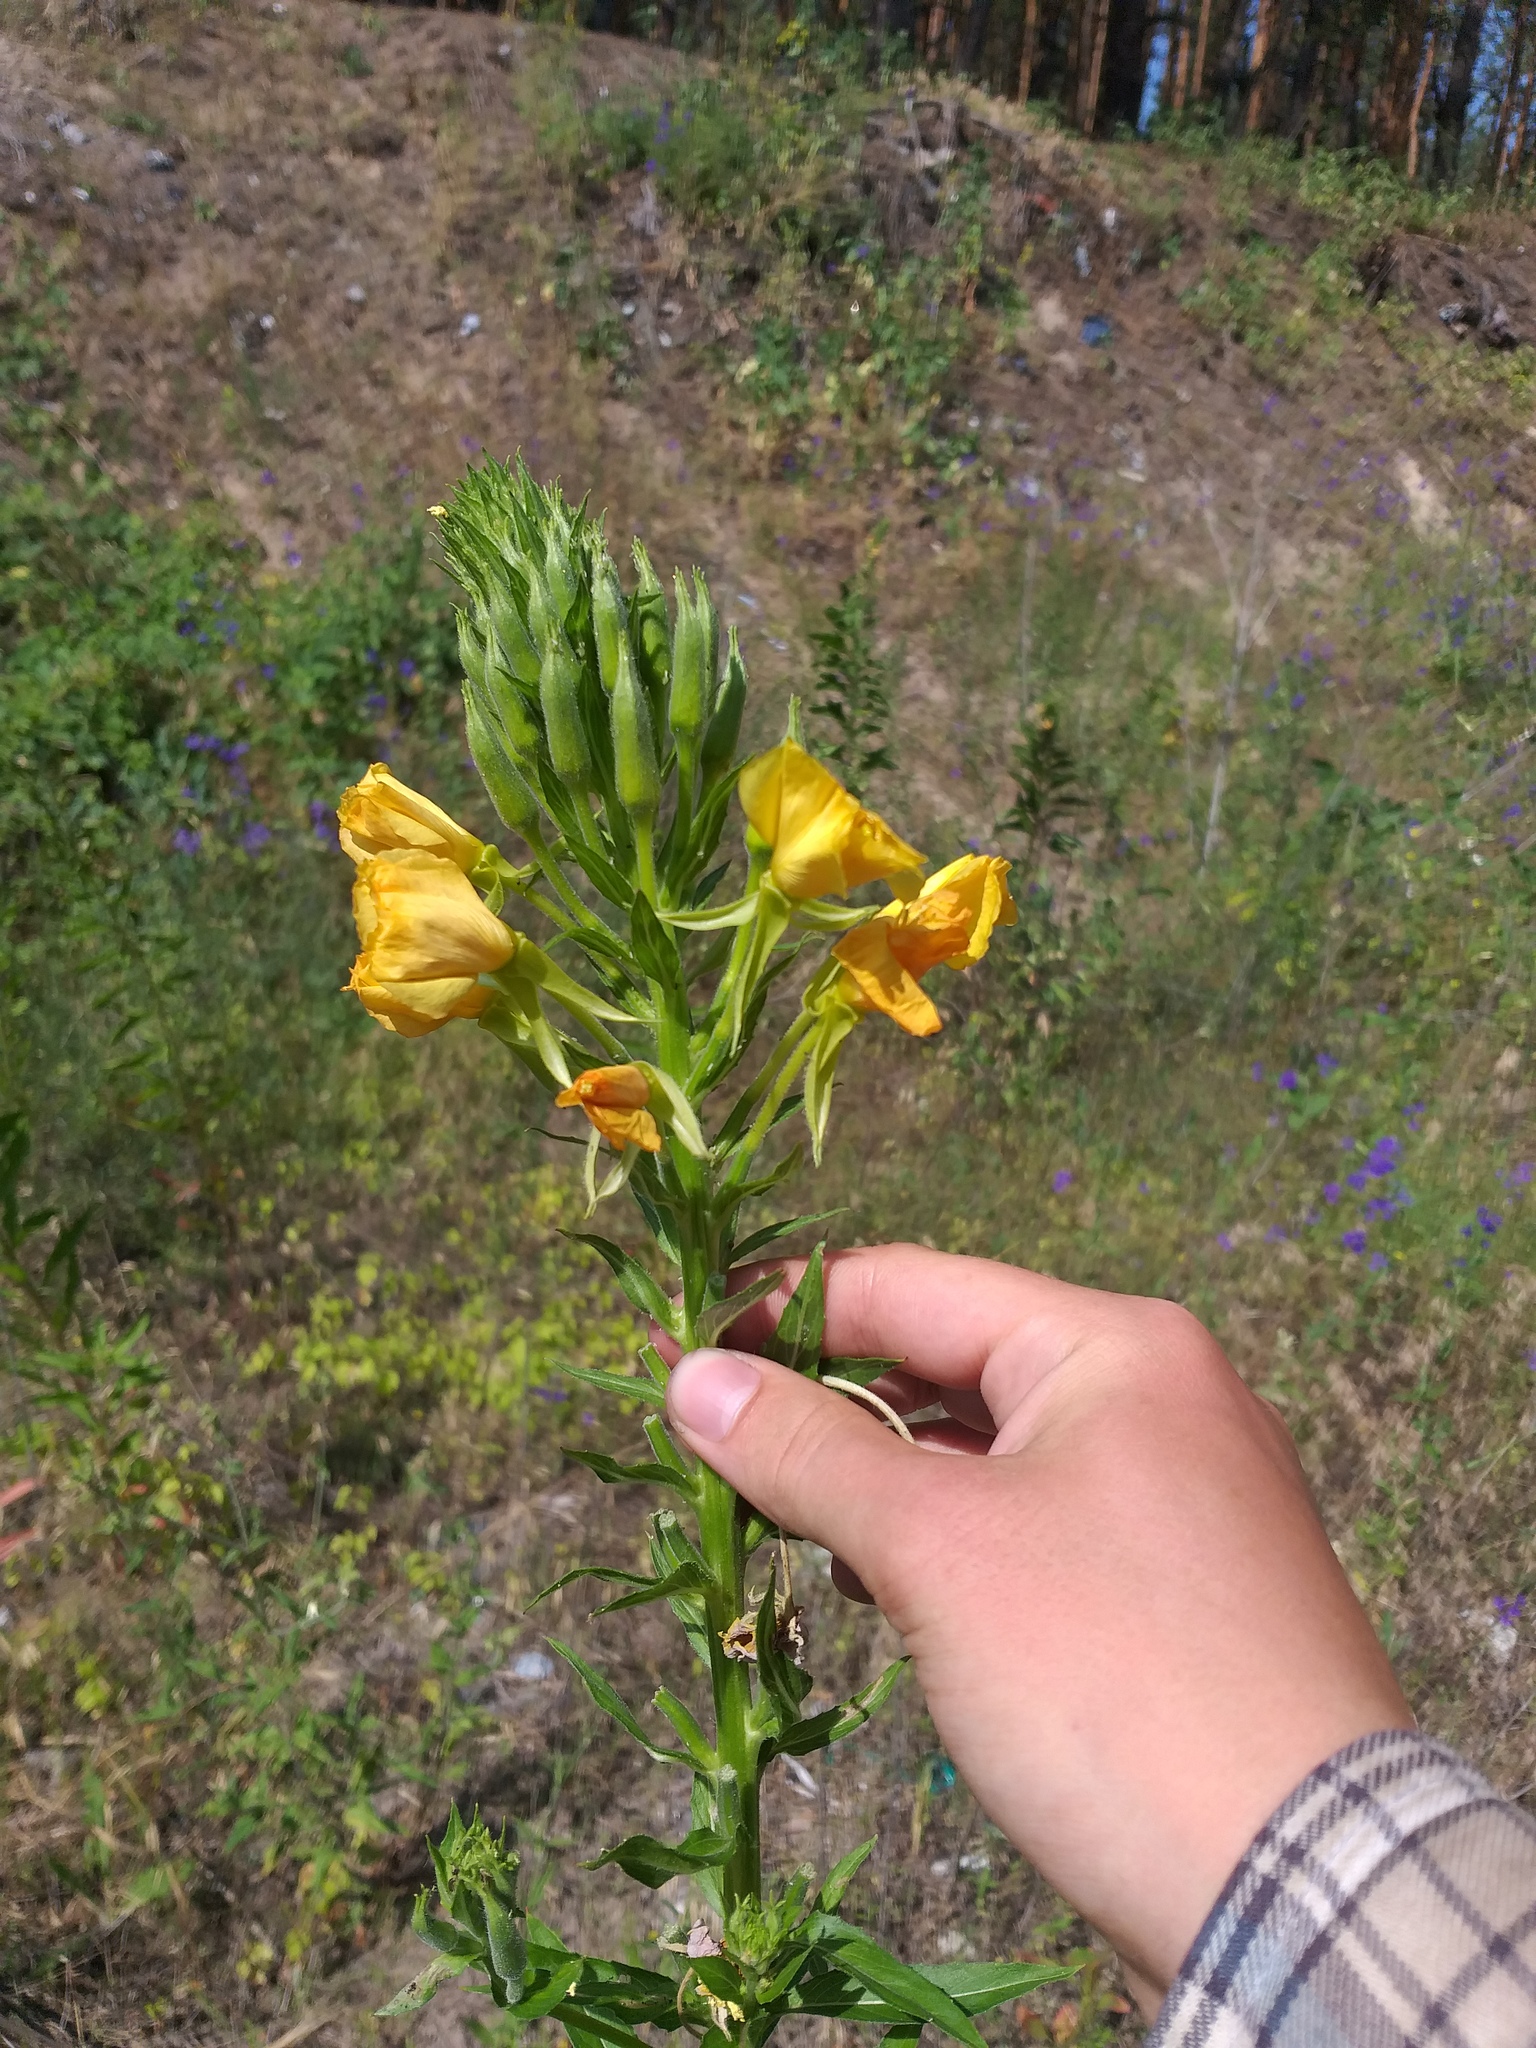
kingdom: Plantae
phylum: Tracheophyta
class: Magnoliopsida
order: Myrtales
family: Onagraceae
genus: Oenothera
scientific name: Oenothera biennis
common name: Common evening-primrose
